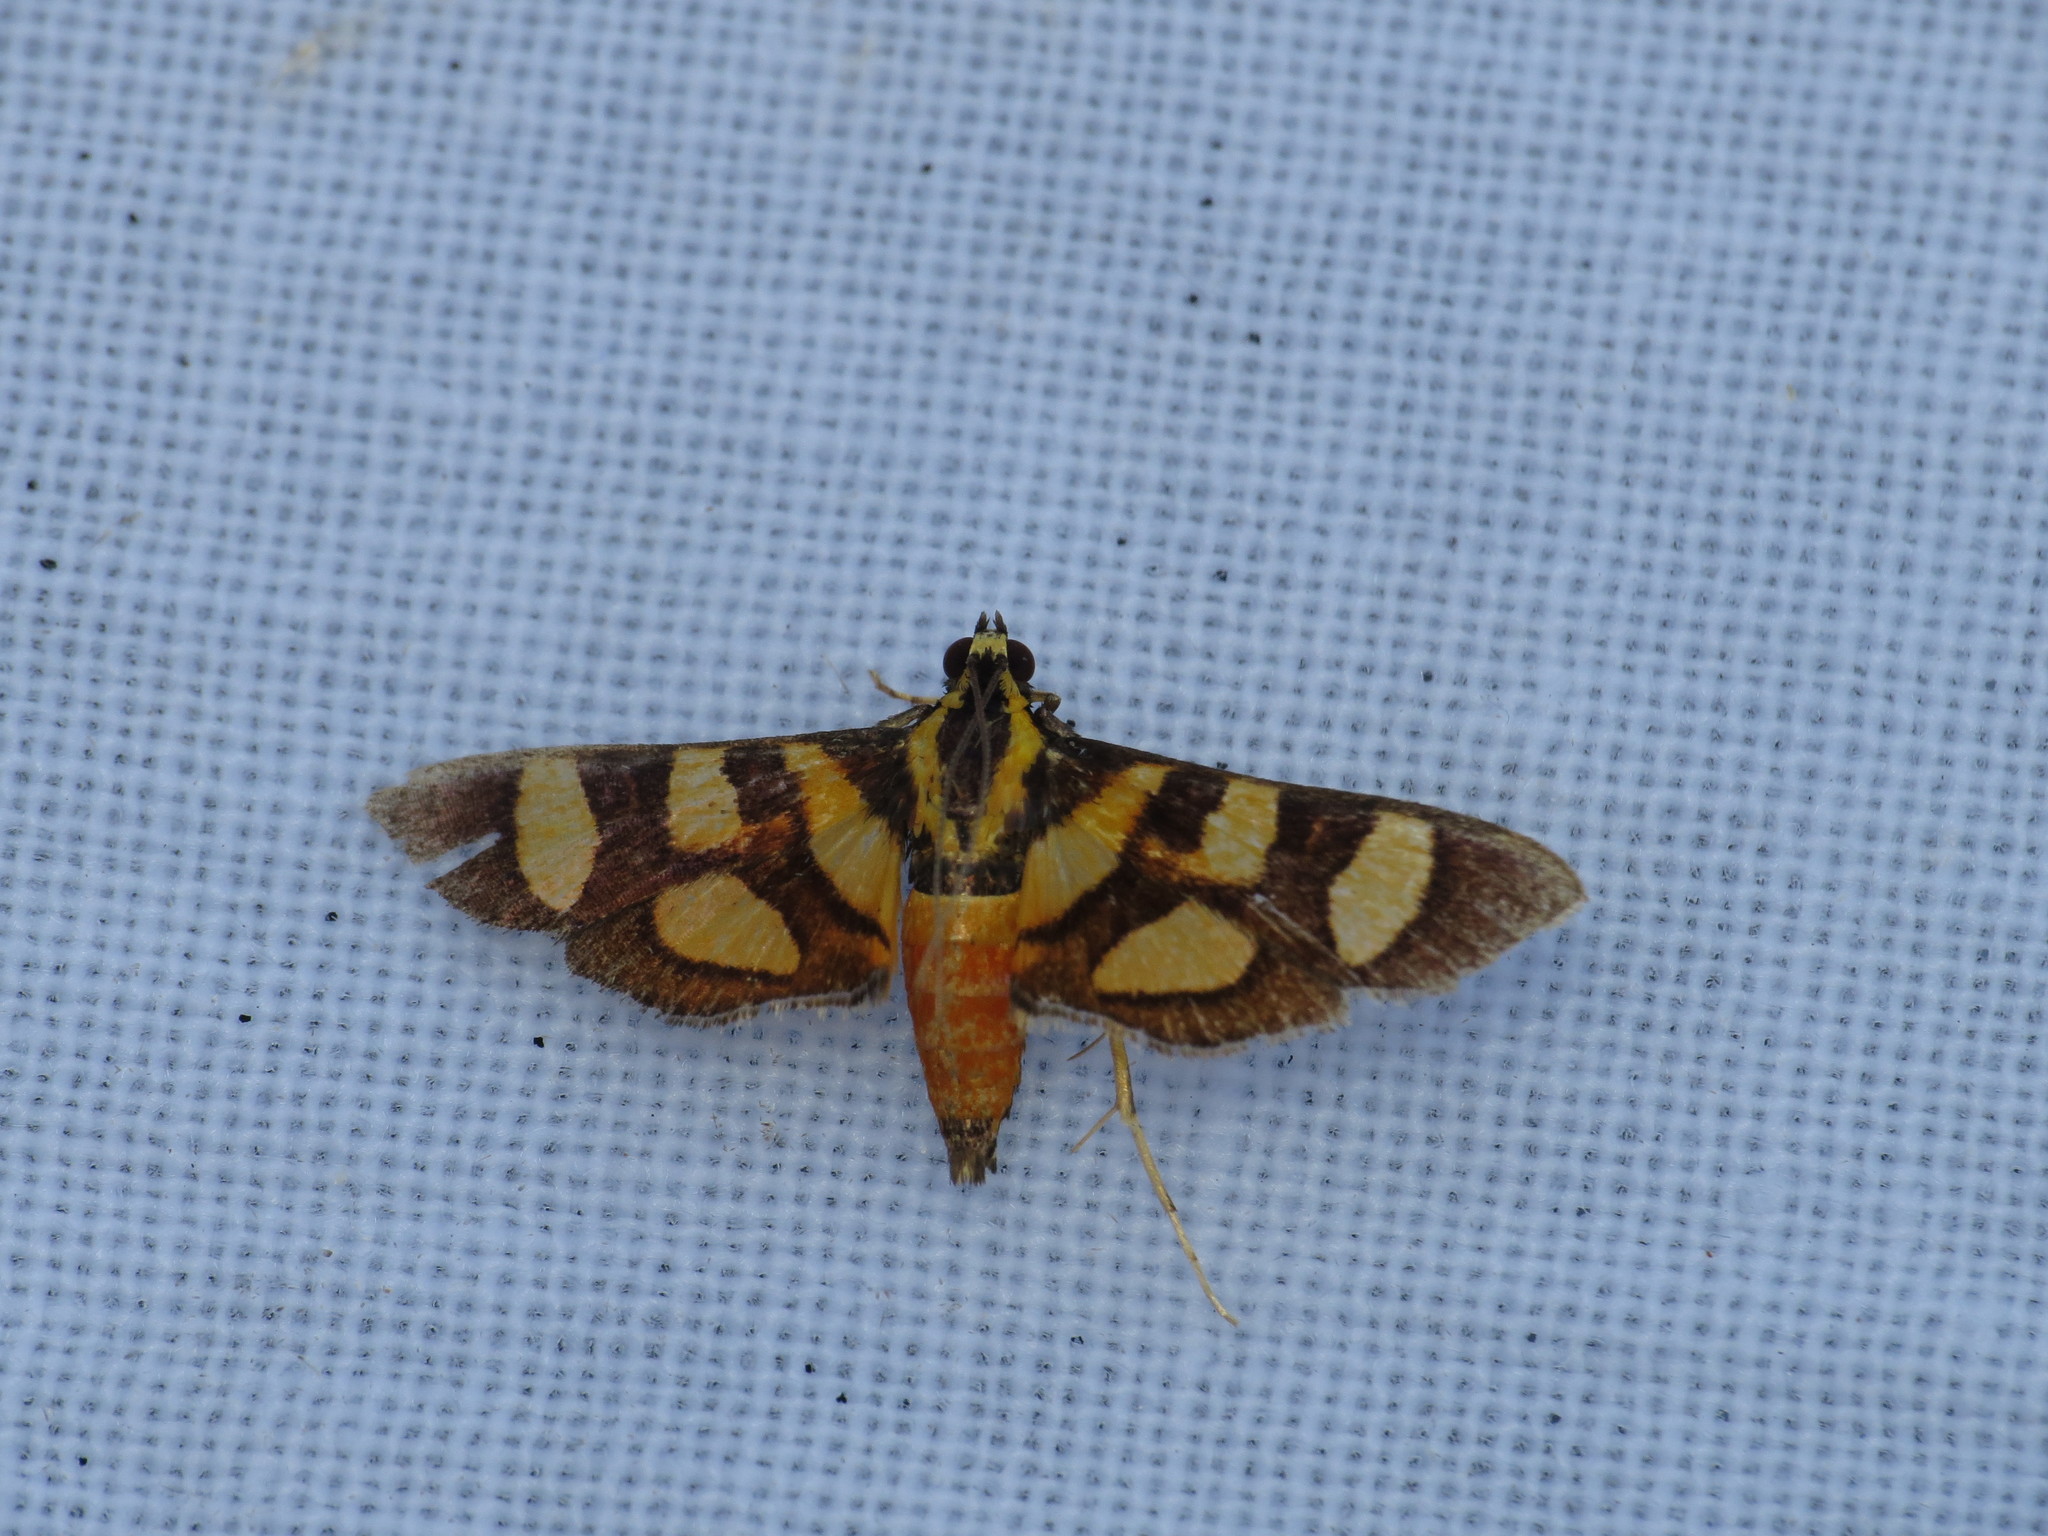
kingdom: Animalia
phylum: Arthropoda
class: Insecta
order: Lepidoptera
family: Crambidae
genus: Syngamia
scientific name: Syngamia florella
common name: Orange-spotted flower moth
